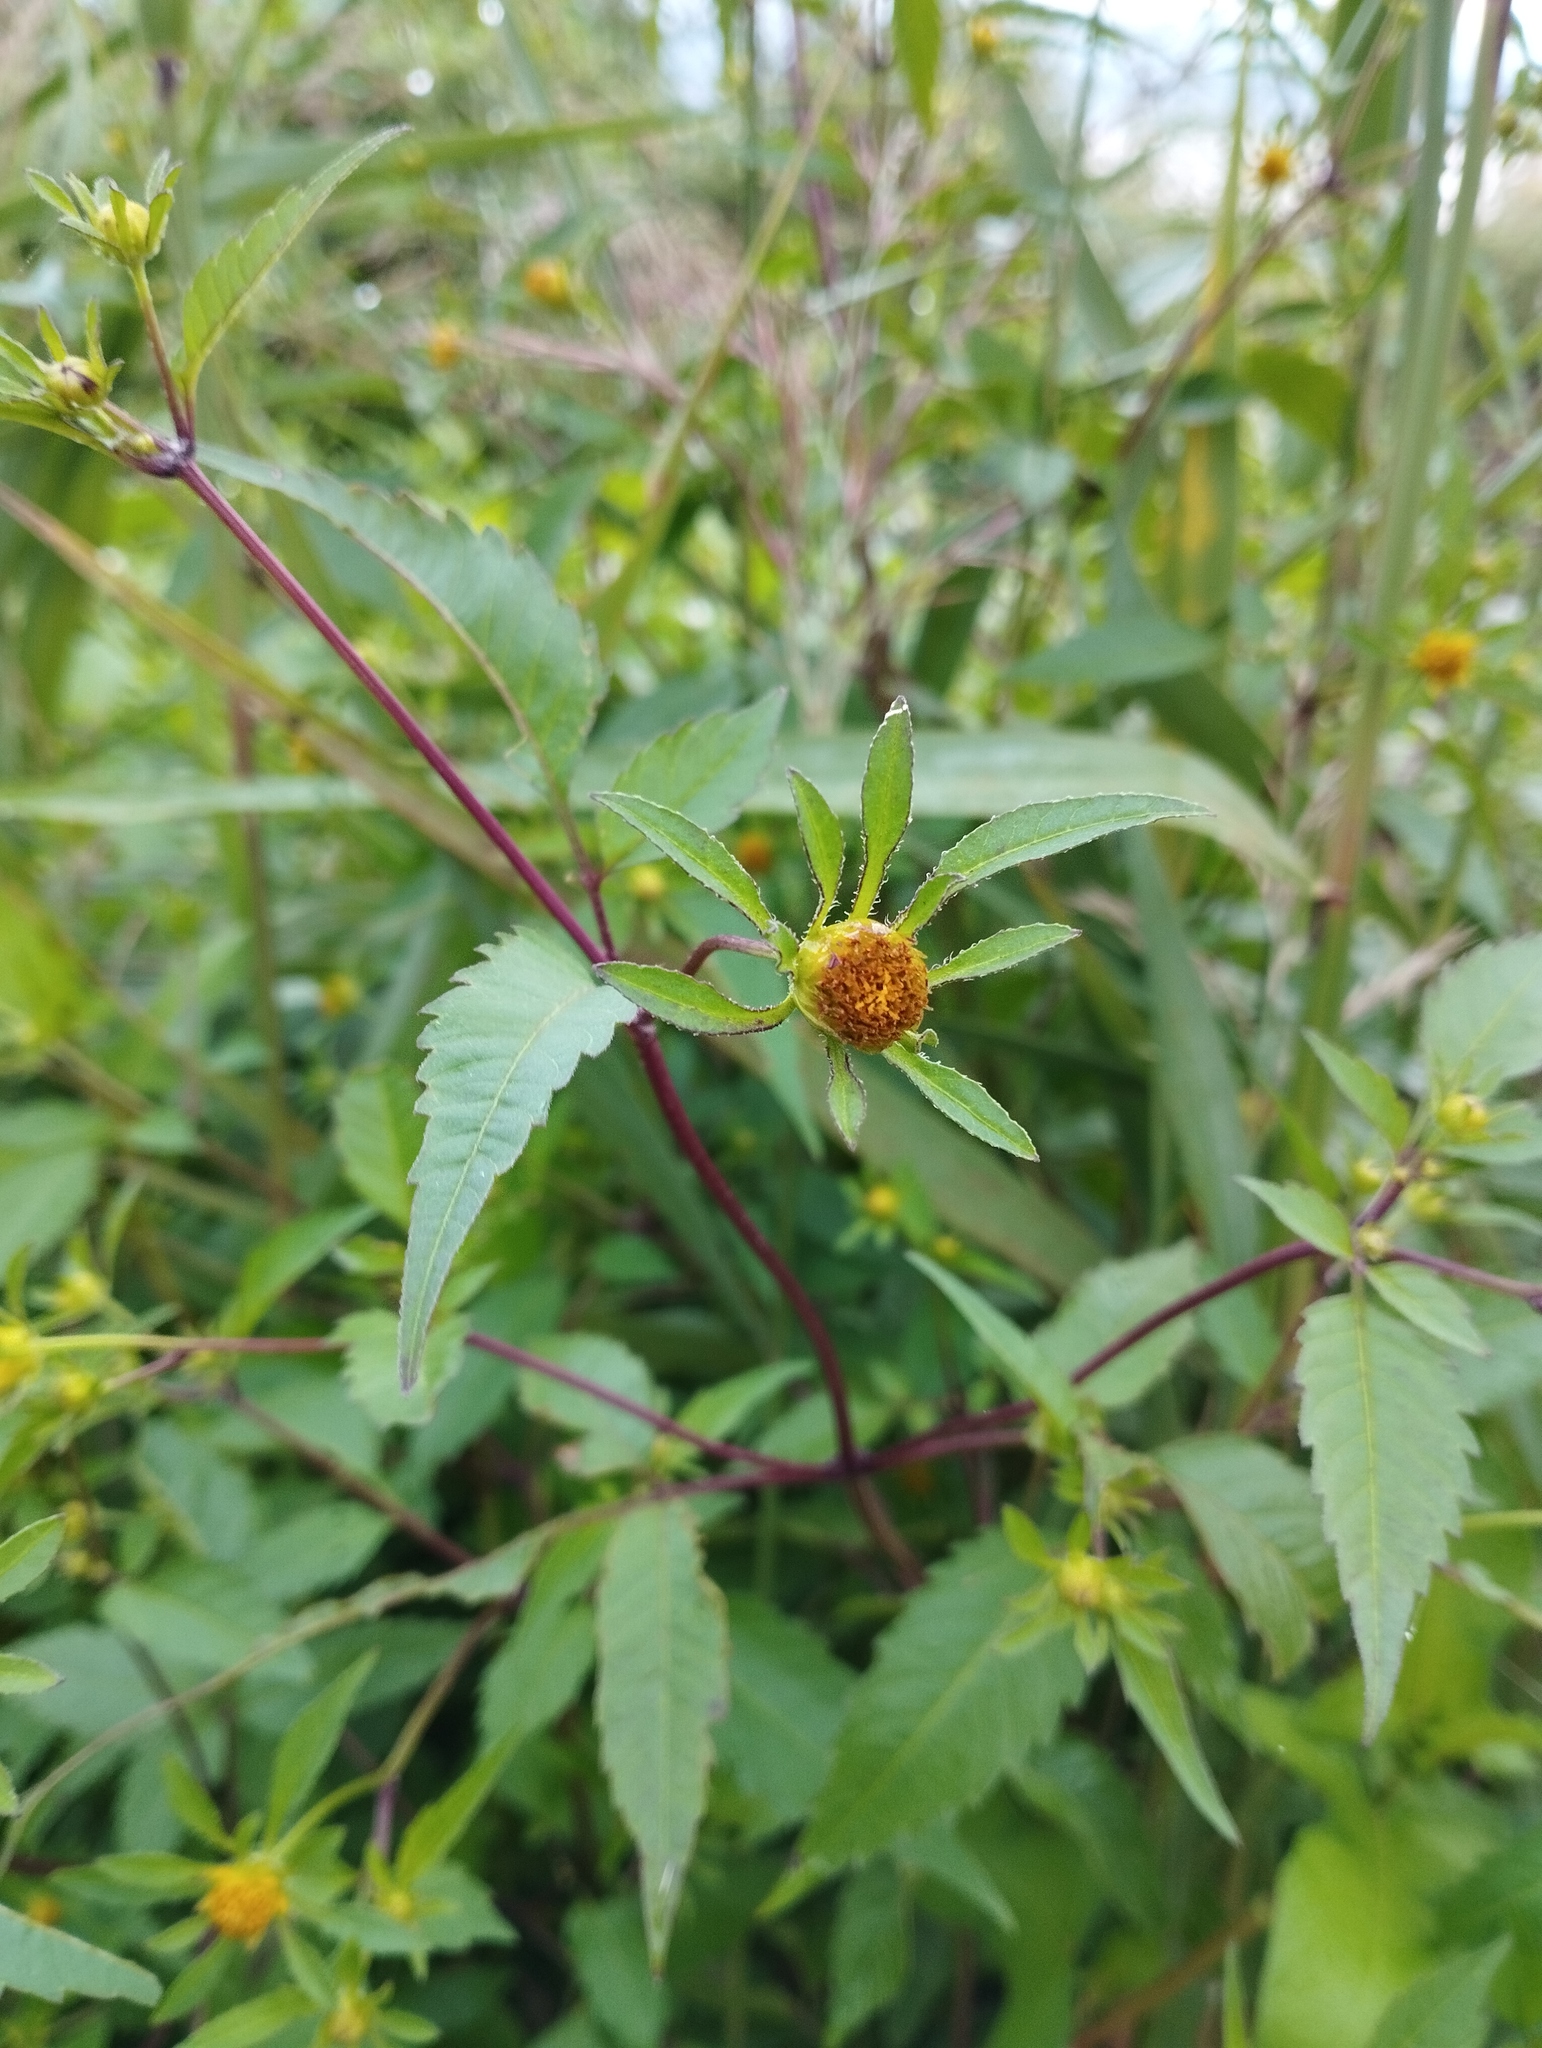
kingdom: Plantae
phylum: Tracheophyta
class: Magnoliopsida
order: Asterales
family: Asteraceae
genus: Bidens
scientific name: Bidens frondosa
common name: Beggarticks
